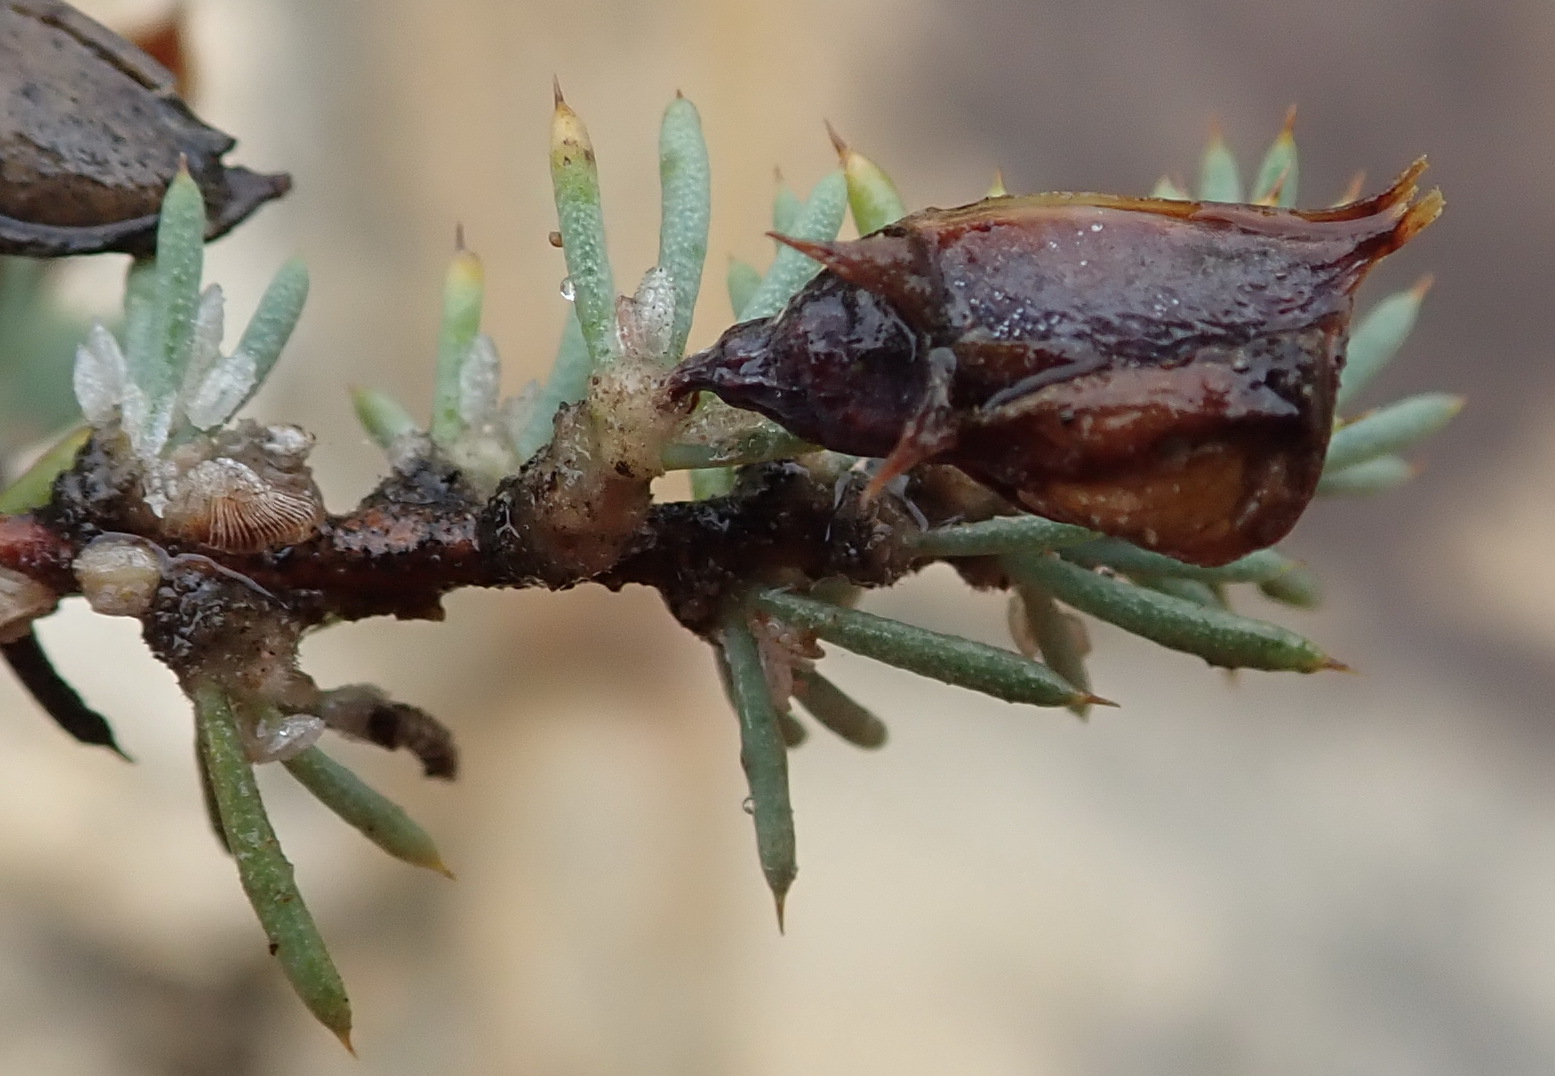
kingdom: Plantae
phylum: Tracheophyta
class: Magnoliopsida
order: Fabales
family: Fabaceae
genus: Aspalathus
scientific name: Aspalathus rigidifolia
